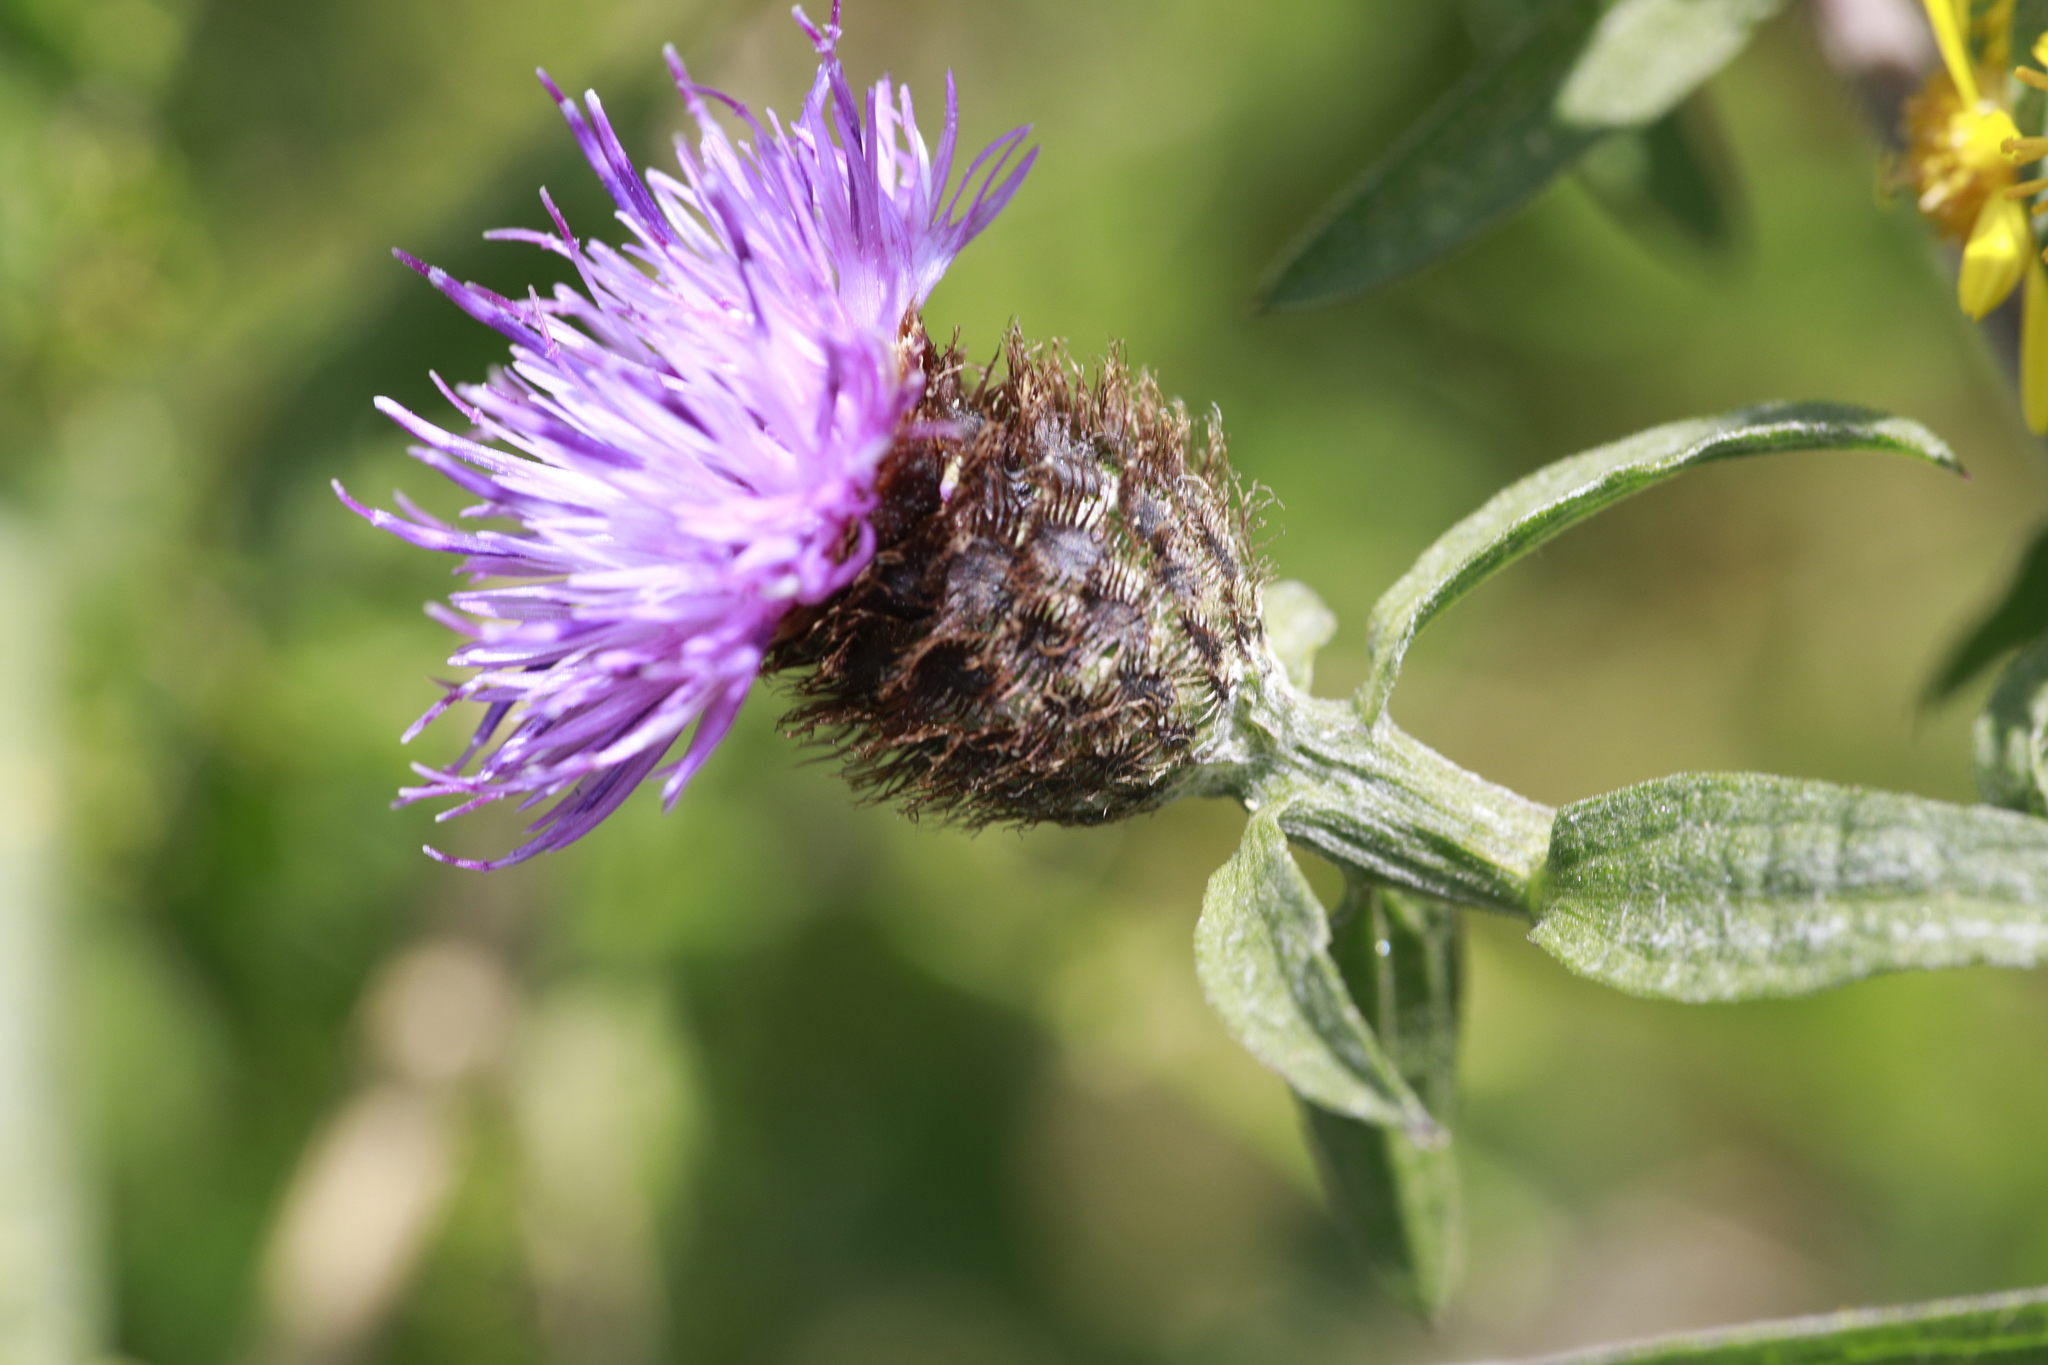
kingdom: Plantae
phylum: Tracheophyta
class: Magnoliopsida
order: Asterales
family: Asteraceae
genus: Centaurea
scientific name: Centaurea nigra
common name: Lesser knapweed
